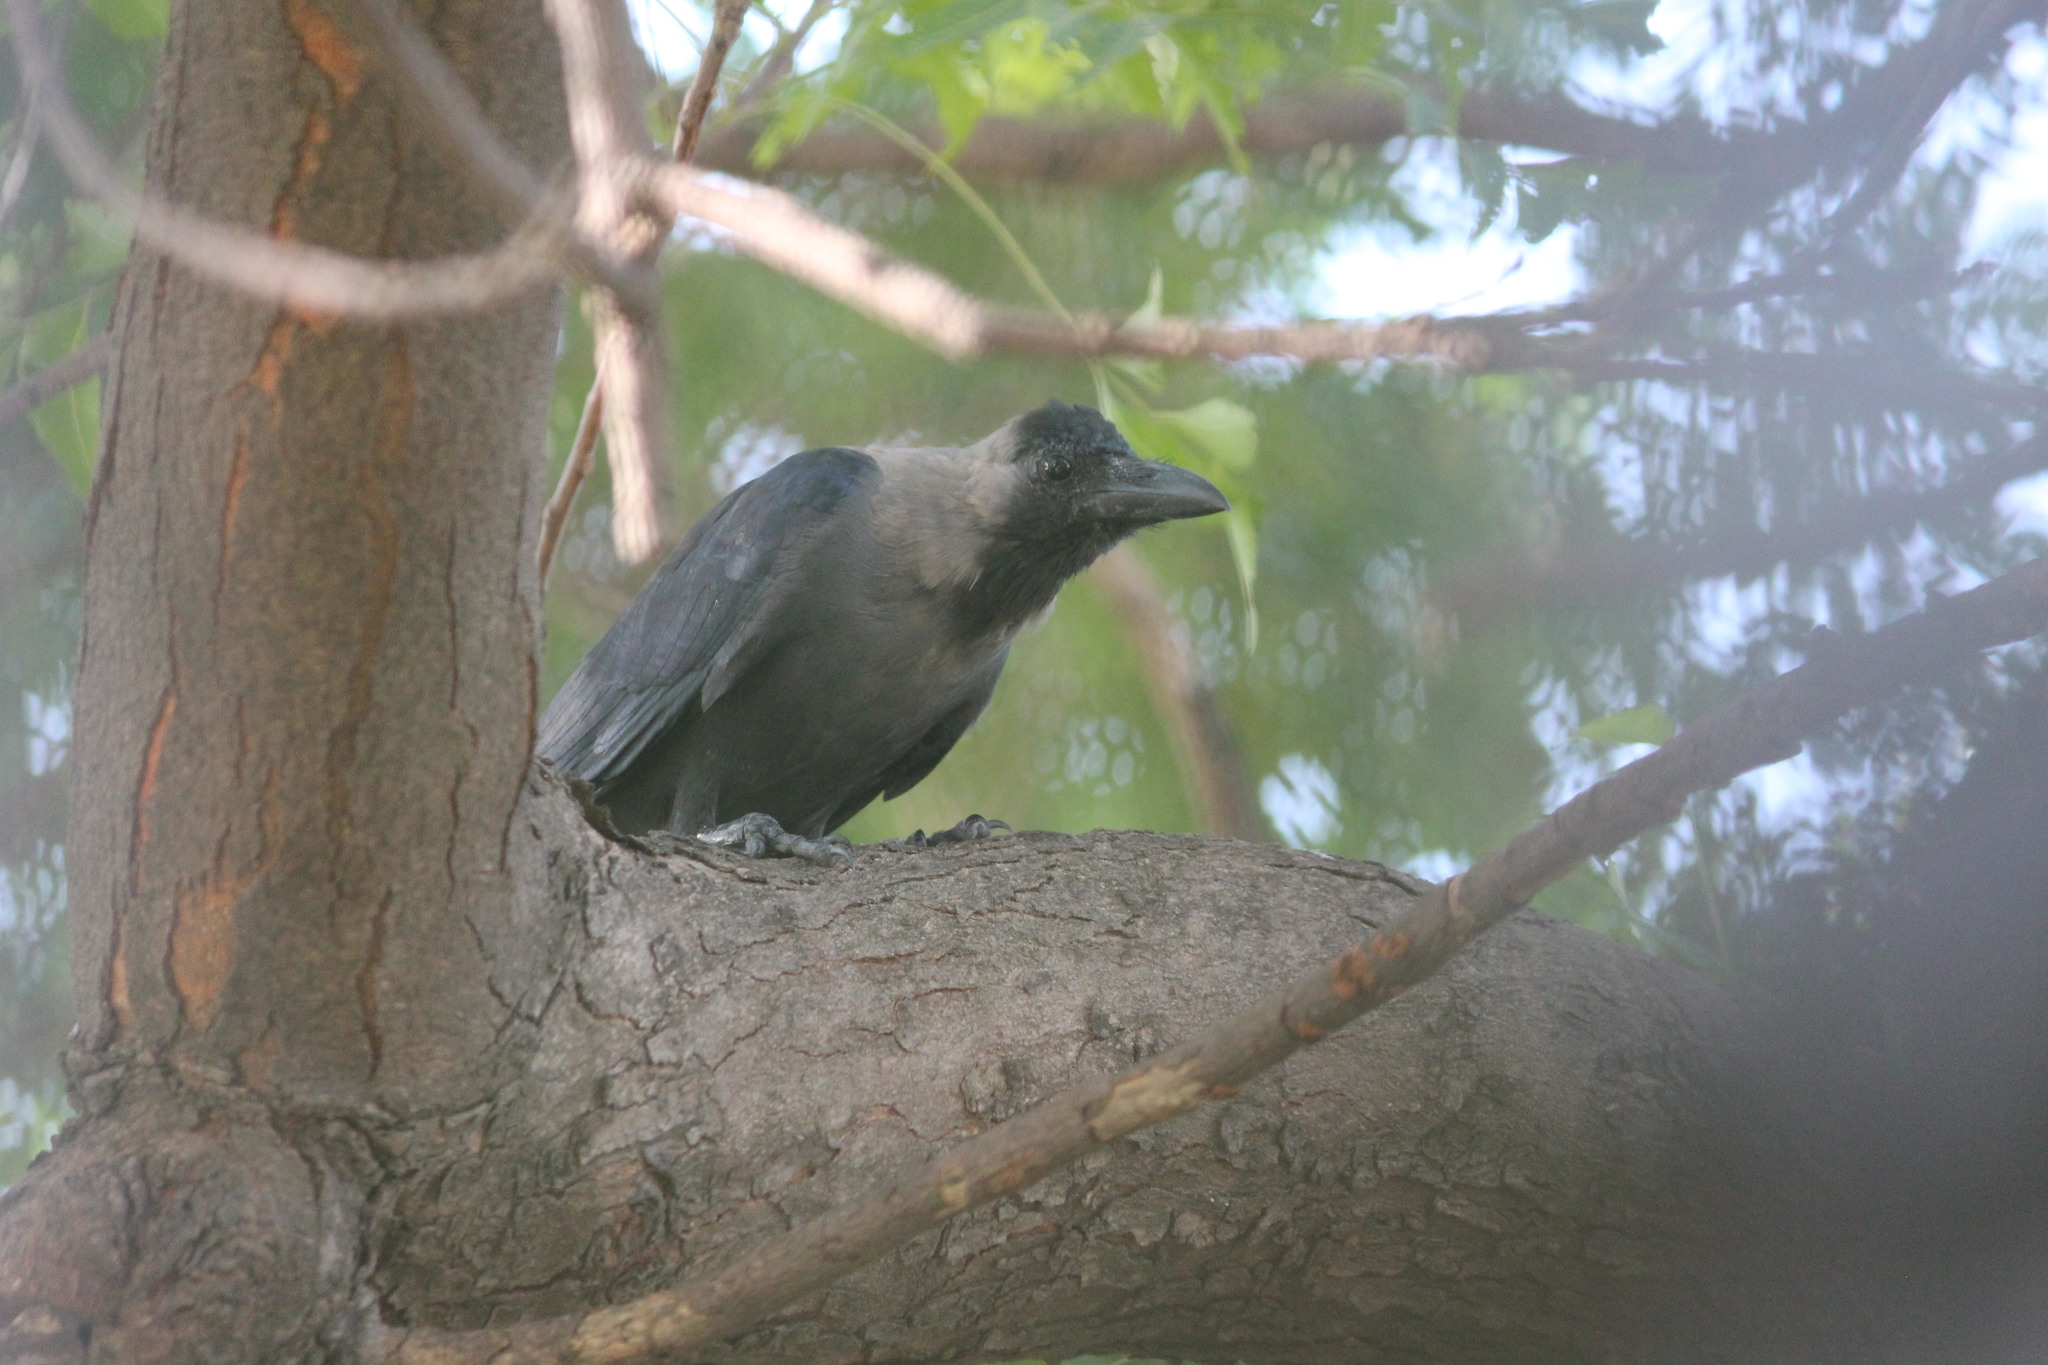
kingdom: Animalia
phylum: Chordata
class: Aves
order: Passeriformes
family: Corvidae
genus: Corvus
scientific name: Corvus splendens
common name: House crow
